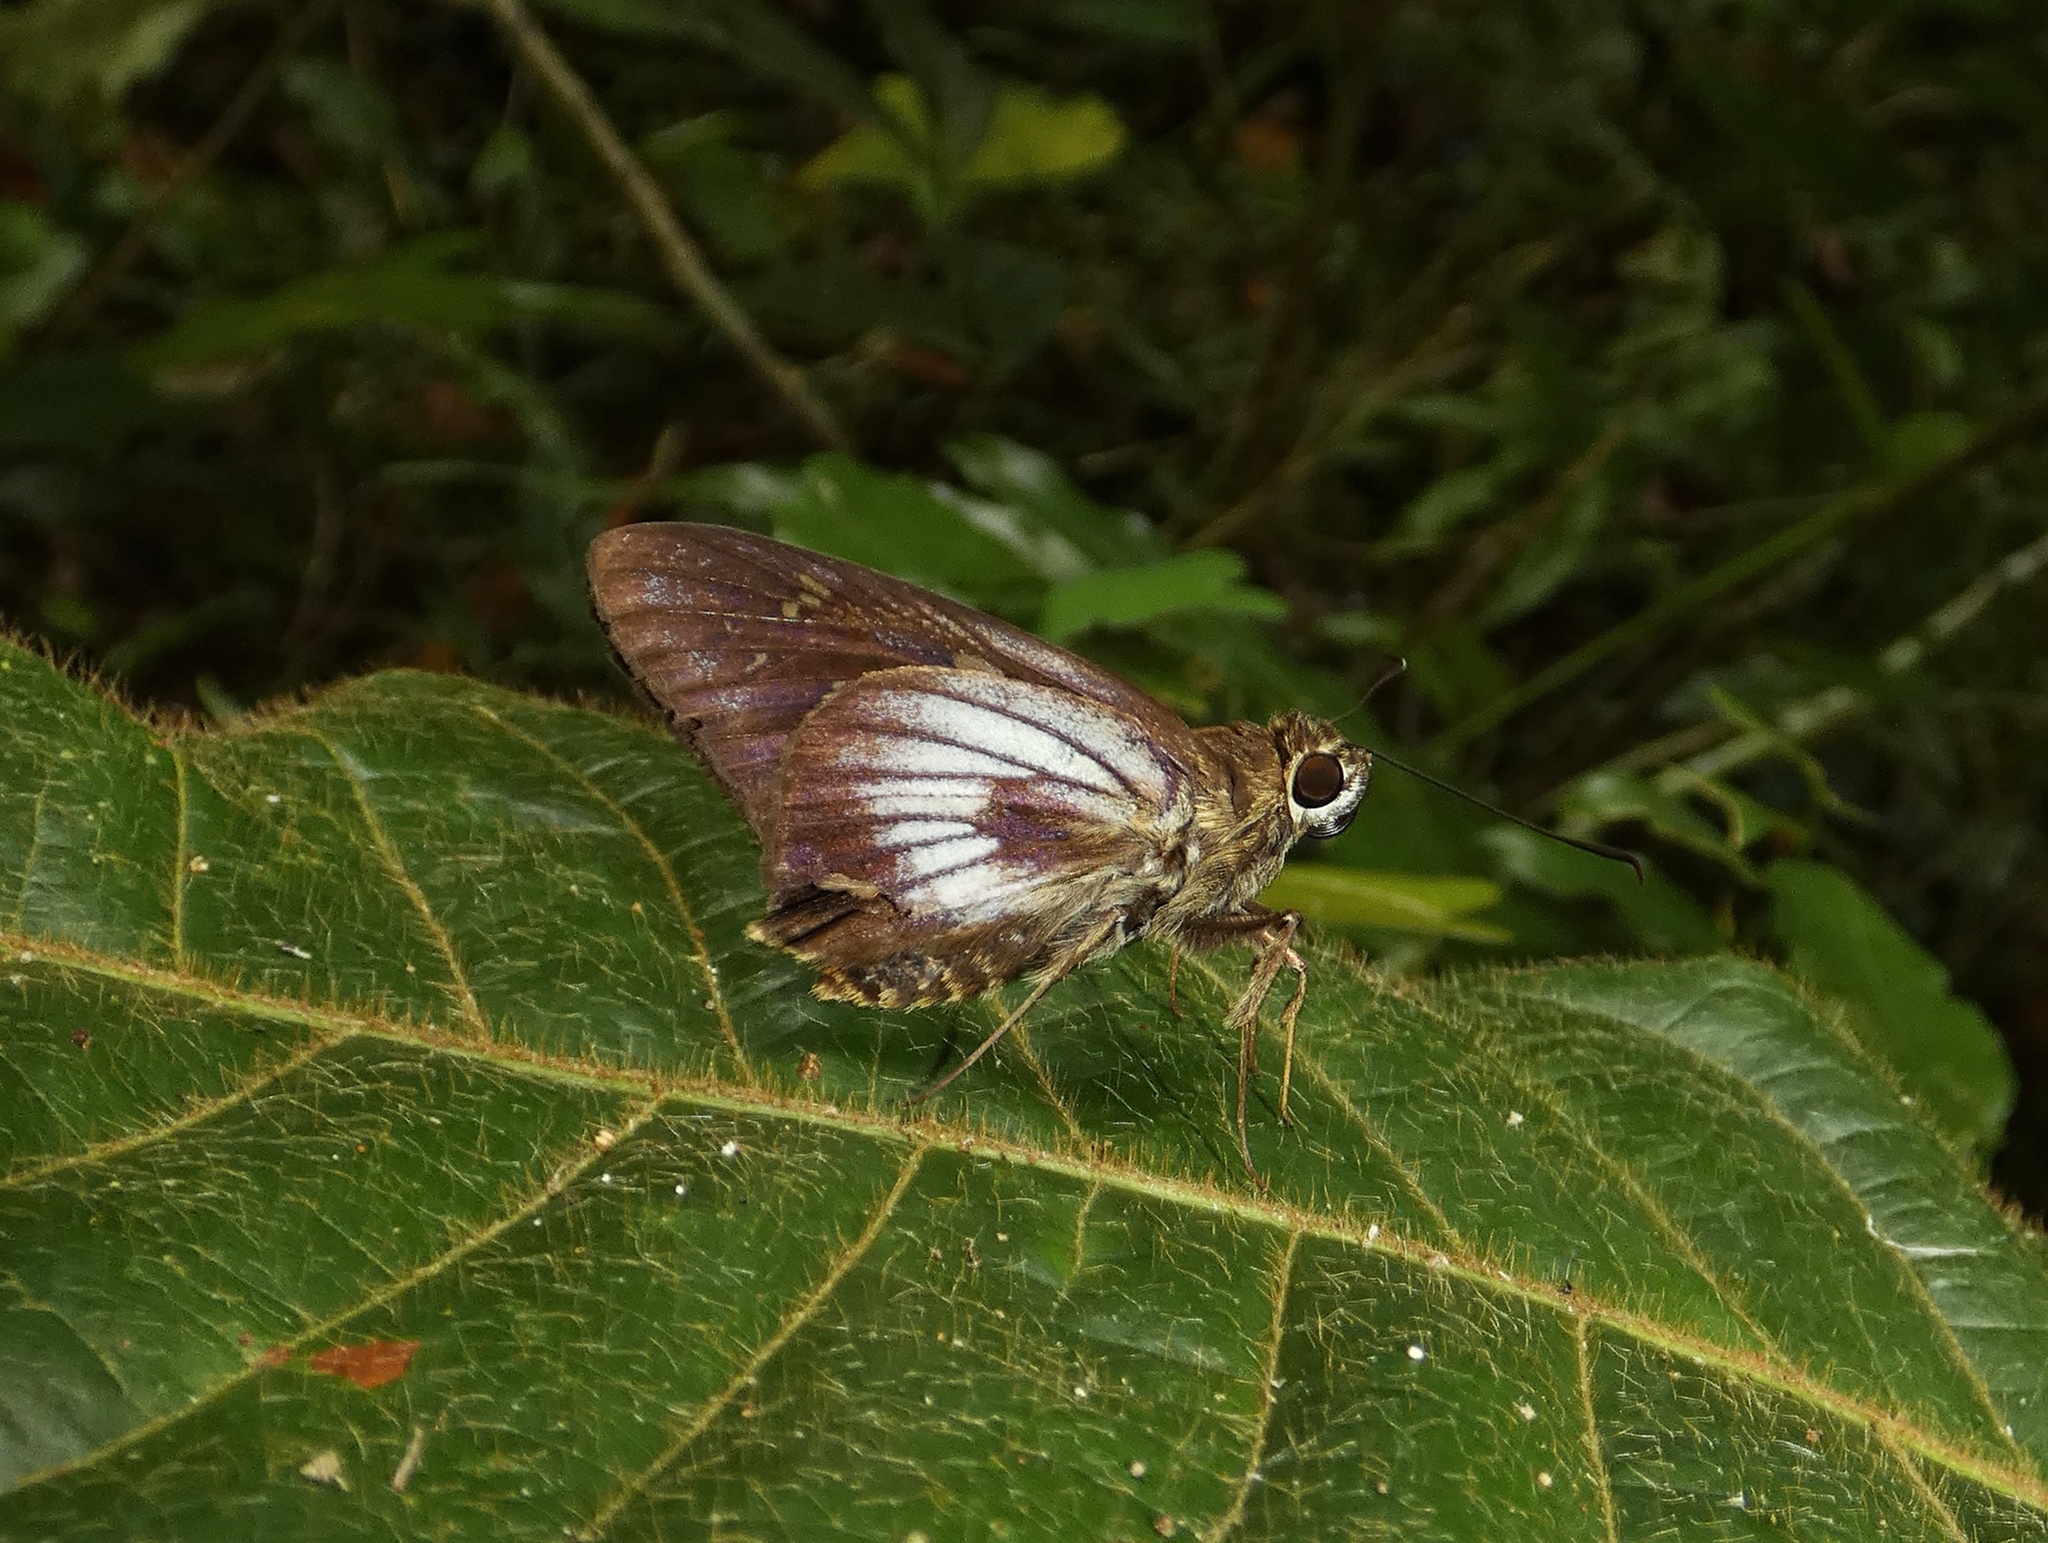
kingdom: Animalia
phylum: Arthropoda
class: Insecta
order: Lepidoptera
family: Hesperiidae
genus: Unkana
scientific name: Unkana ambasa
